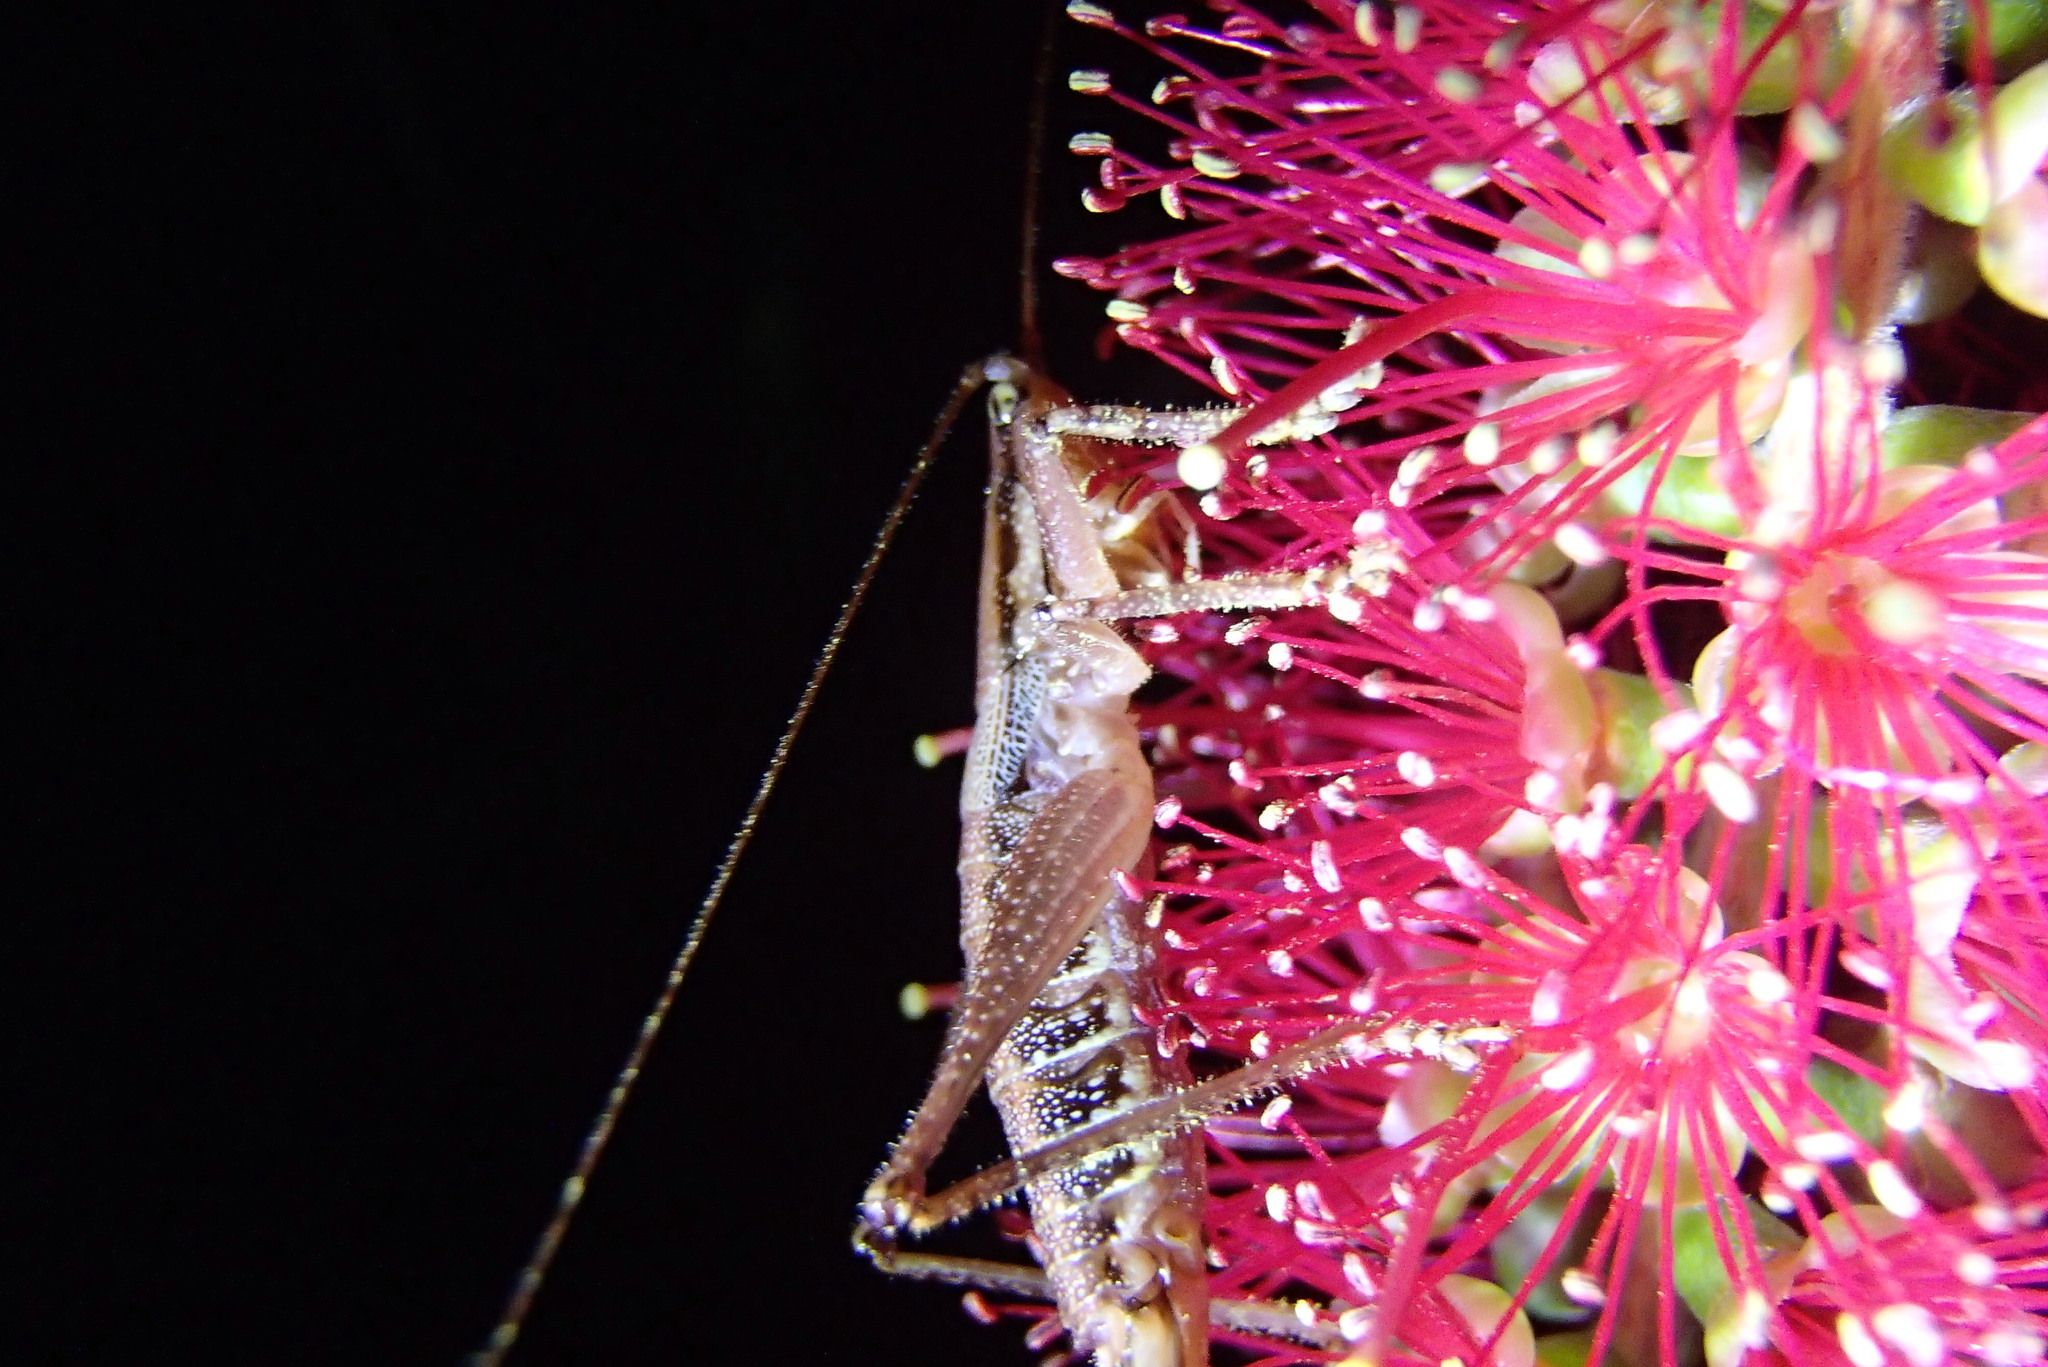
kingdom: Animalia
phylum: Arthropoda
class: Insecta
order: Orthoptera
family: Tettigoniidae
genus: Coptaspis
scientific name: Coptaspis brevipennis
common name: Sidney woodland katydid
